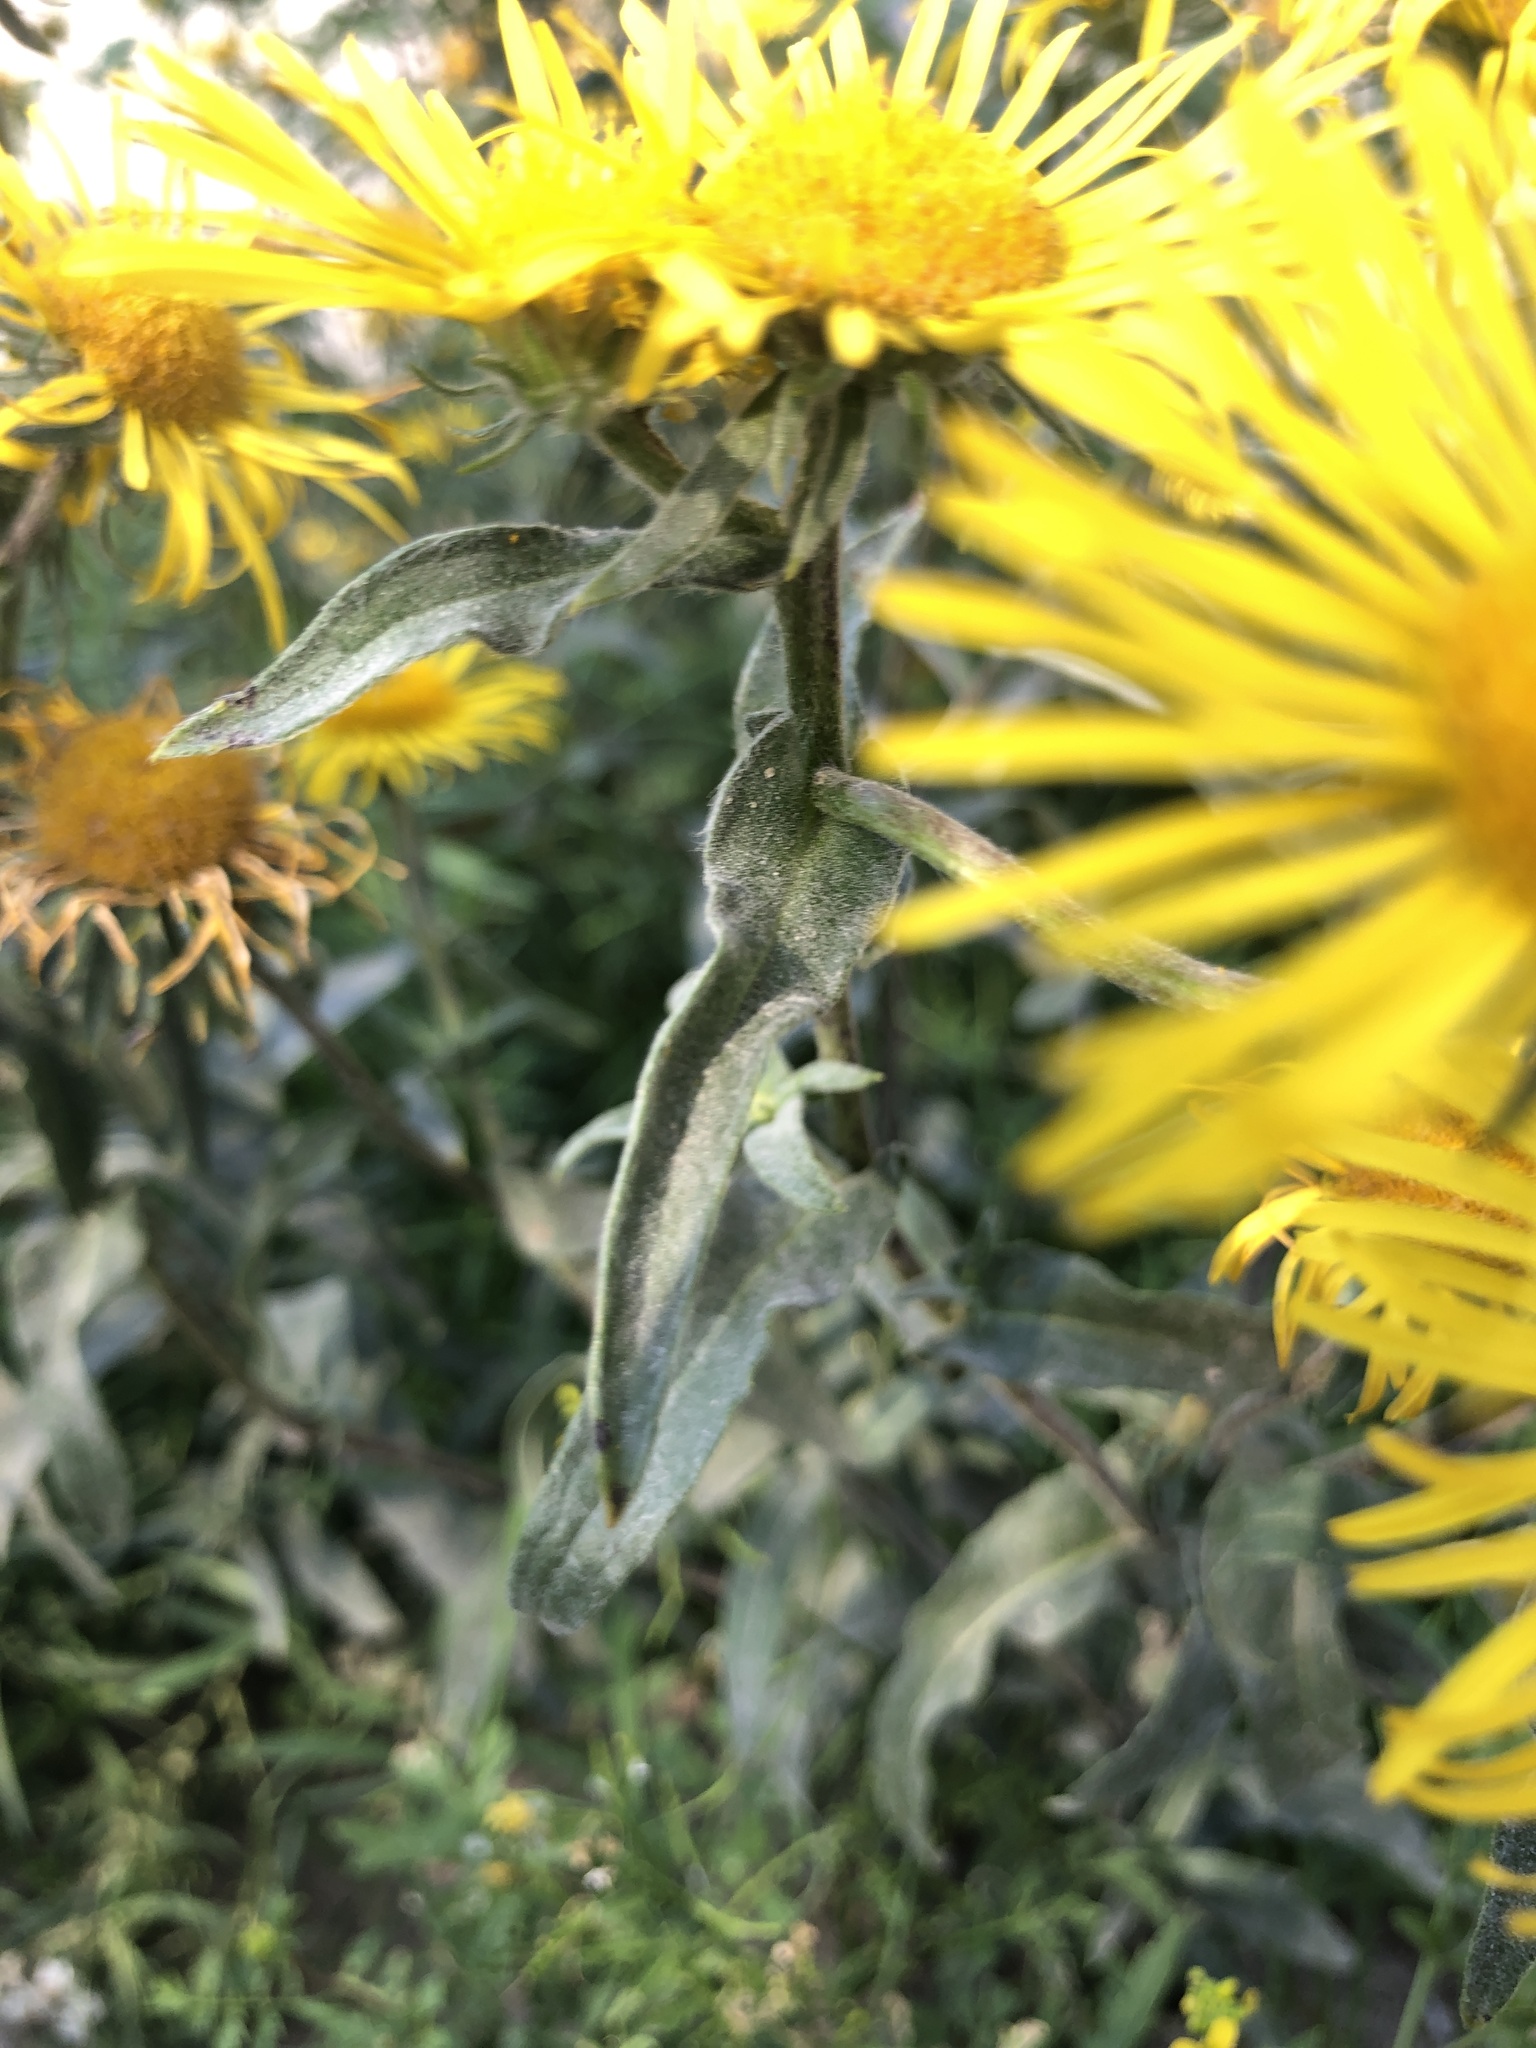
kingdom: Plantae
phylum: Tracheophyta
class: Magnoliopsida
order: Asterales
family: Asteraceae
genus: Pentanema
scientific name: Pentanema britannicum
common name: British elecampane
